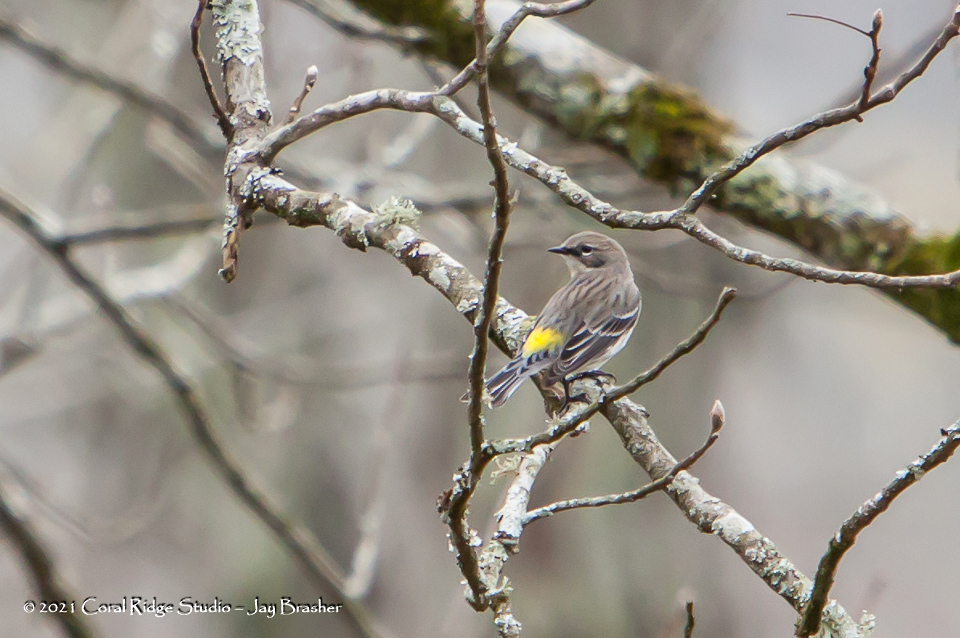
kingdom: Animalia
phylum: Chordata
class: Aves
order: Passeriformes
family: Parulidae
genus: Setophaga
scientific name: Setophaga coronata
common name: Myrtle warbler
